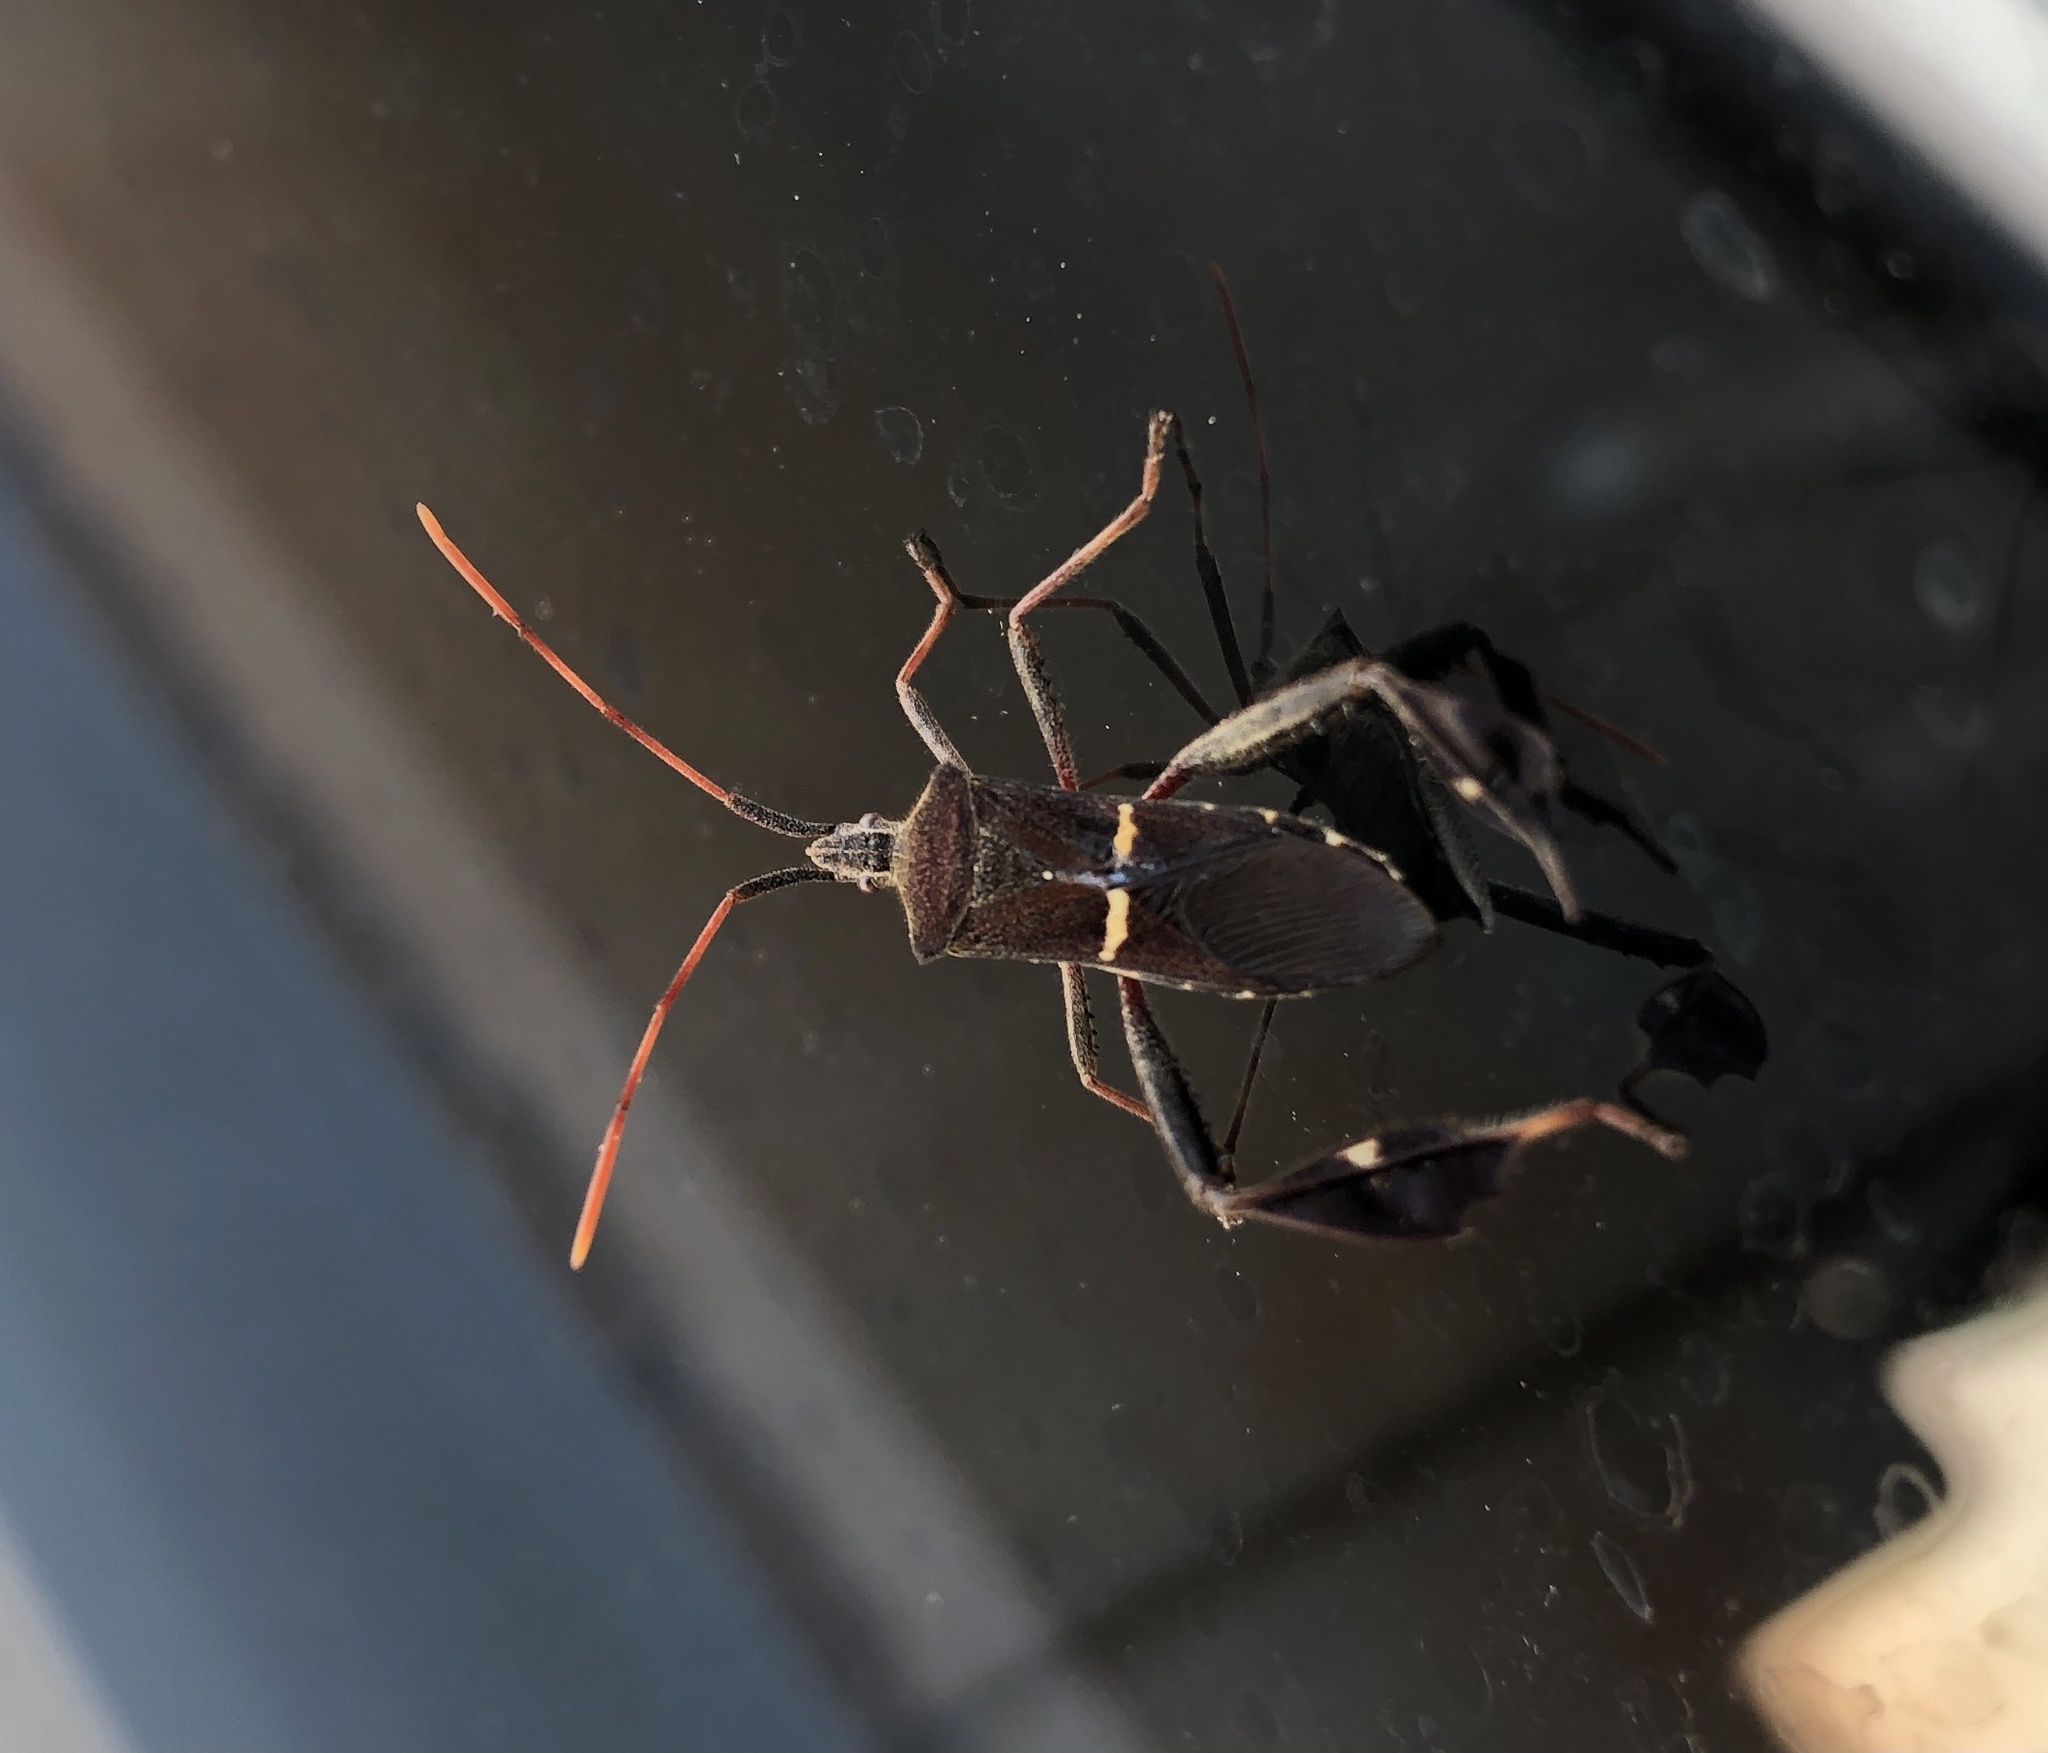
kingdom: Animalia
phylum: Arthropoda
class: Insecta
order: Hemiptera
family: Coreidae
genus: Leptoglossus
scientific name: Leptoglossus phyllopus
